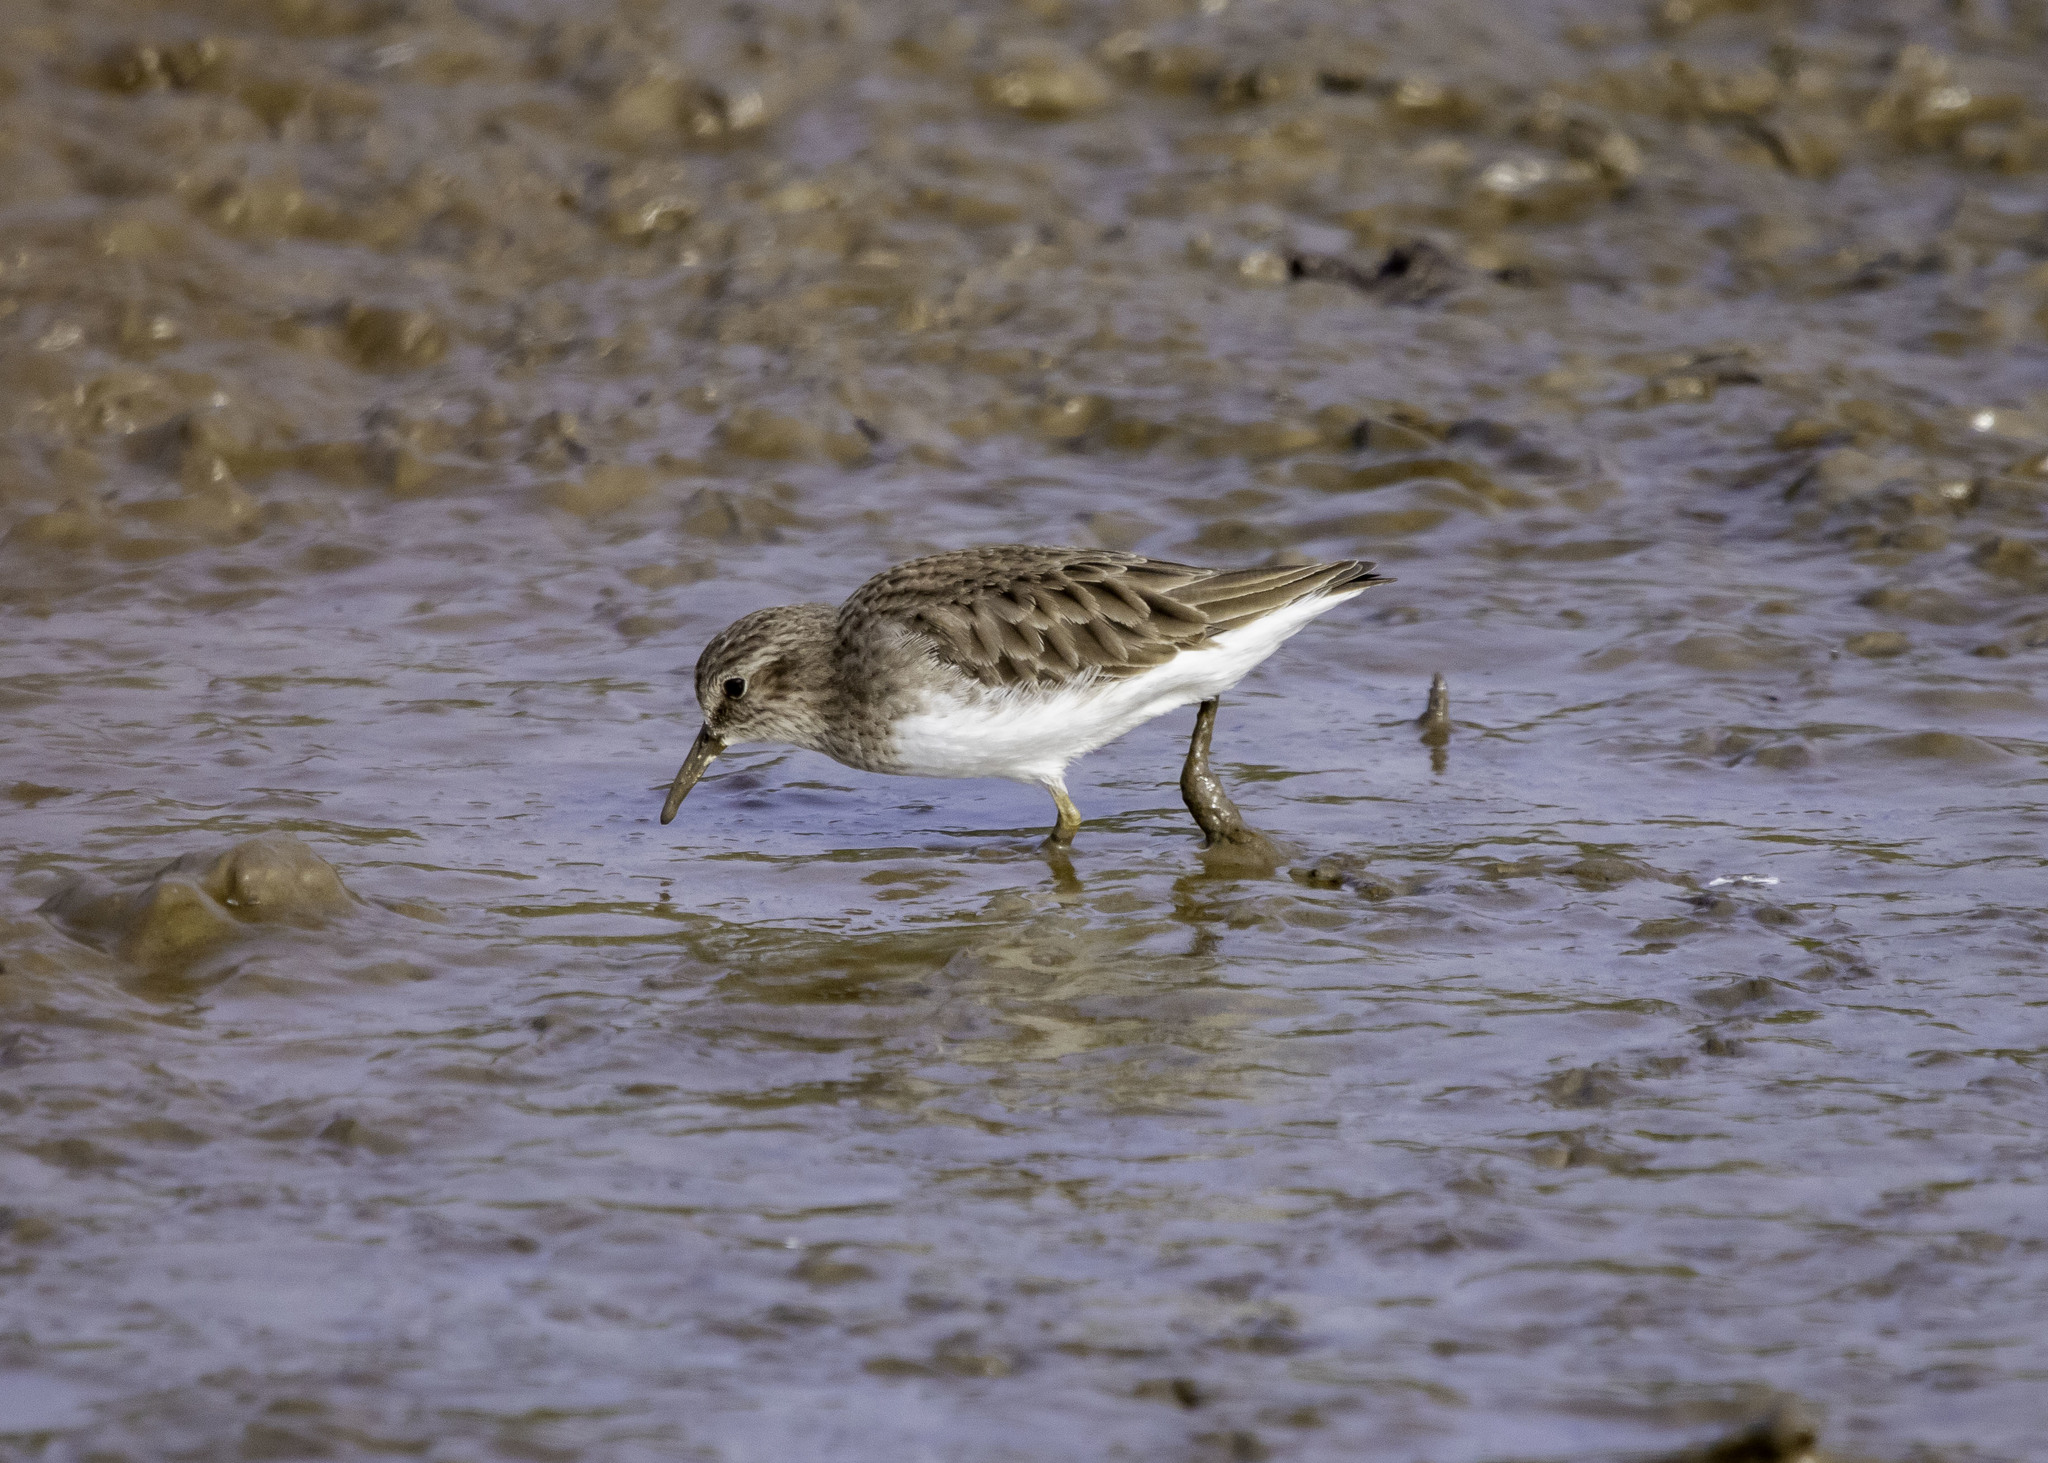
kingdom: Animalia
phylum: Chordata
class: Aves
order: Charadriiformes
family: Scolopacidae
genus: Calidris
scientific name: Calidris minutilla
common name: Least sandpiper
